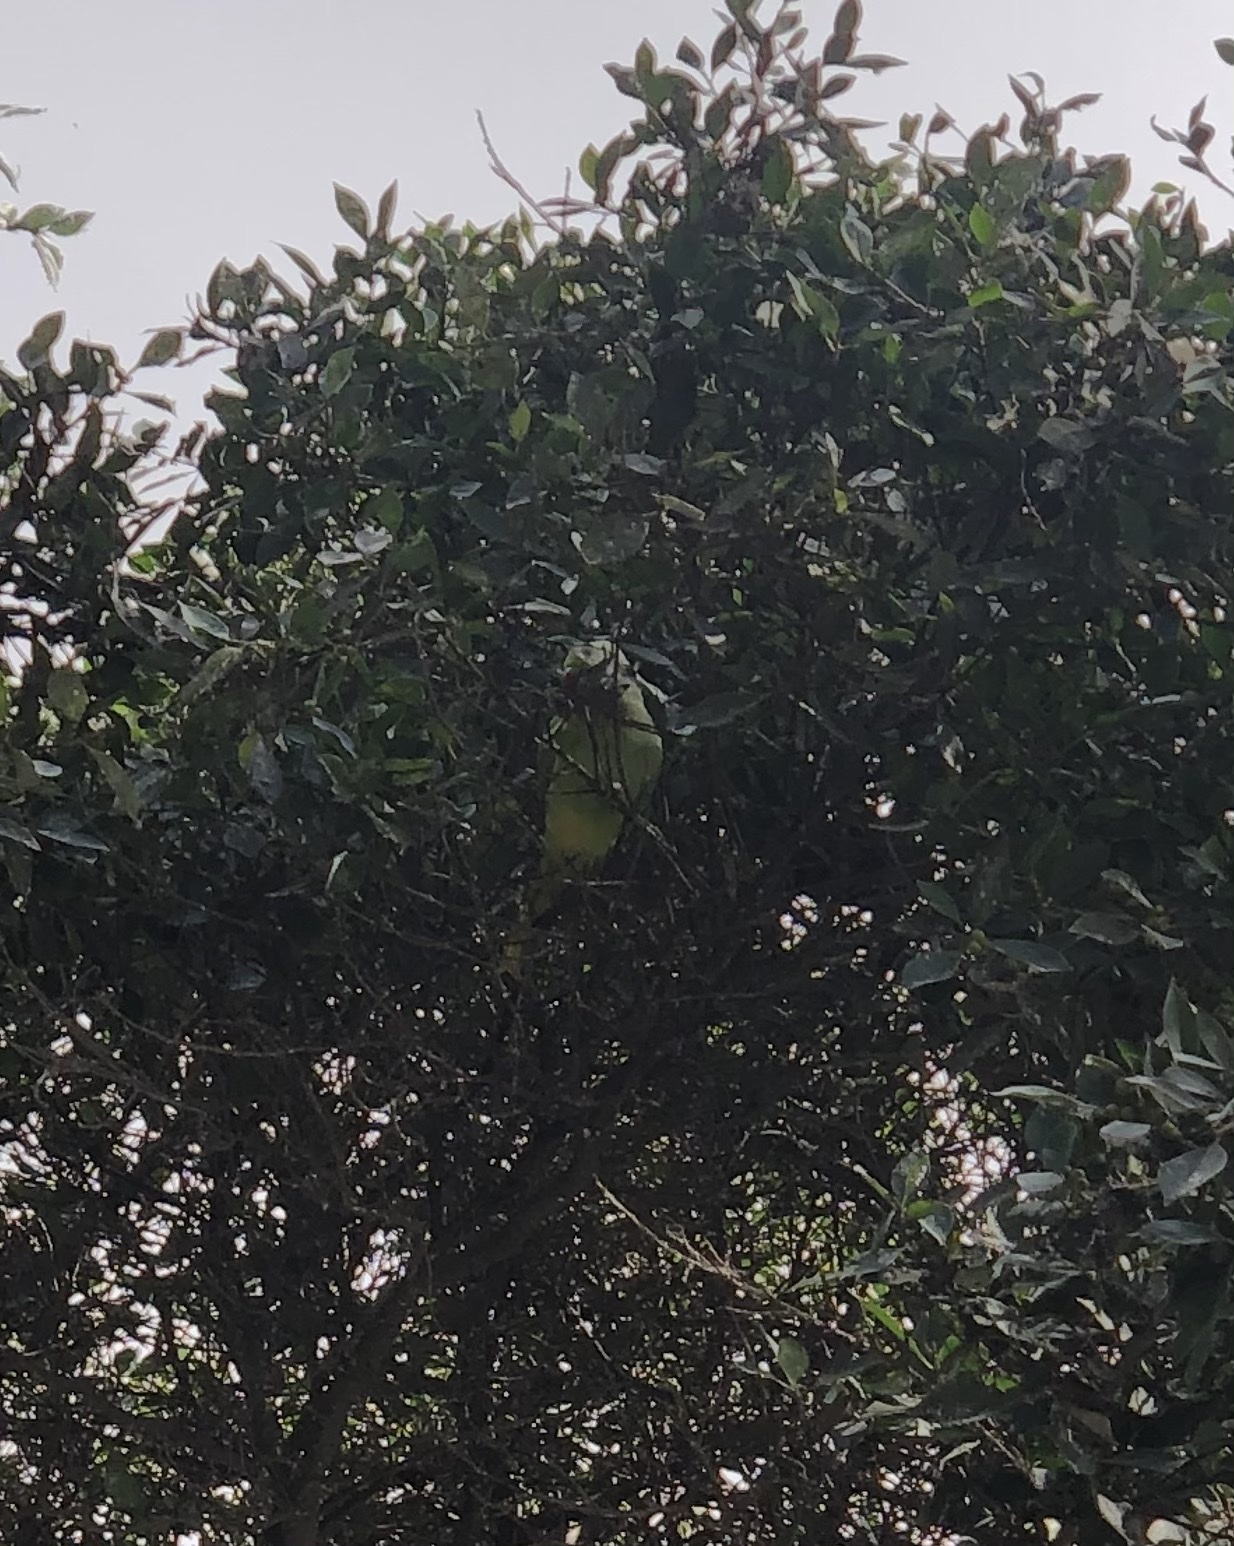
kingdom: Animalia
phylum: Chordata
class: Aves
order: Psittaciformes
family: Psittacidae
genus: Psittacula
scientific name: Psittacula krameri
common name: Rose-ringed parakeet
